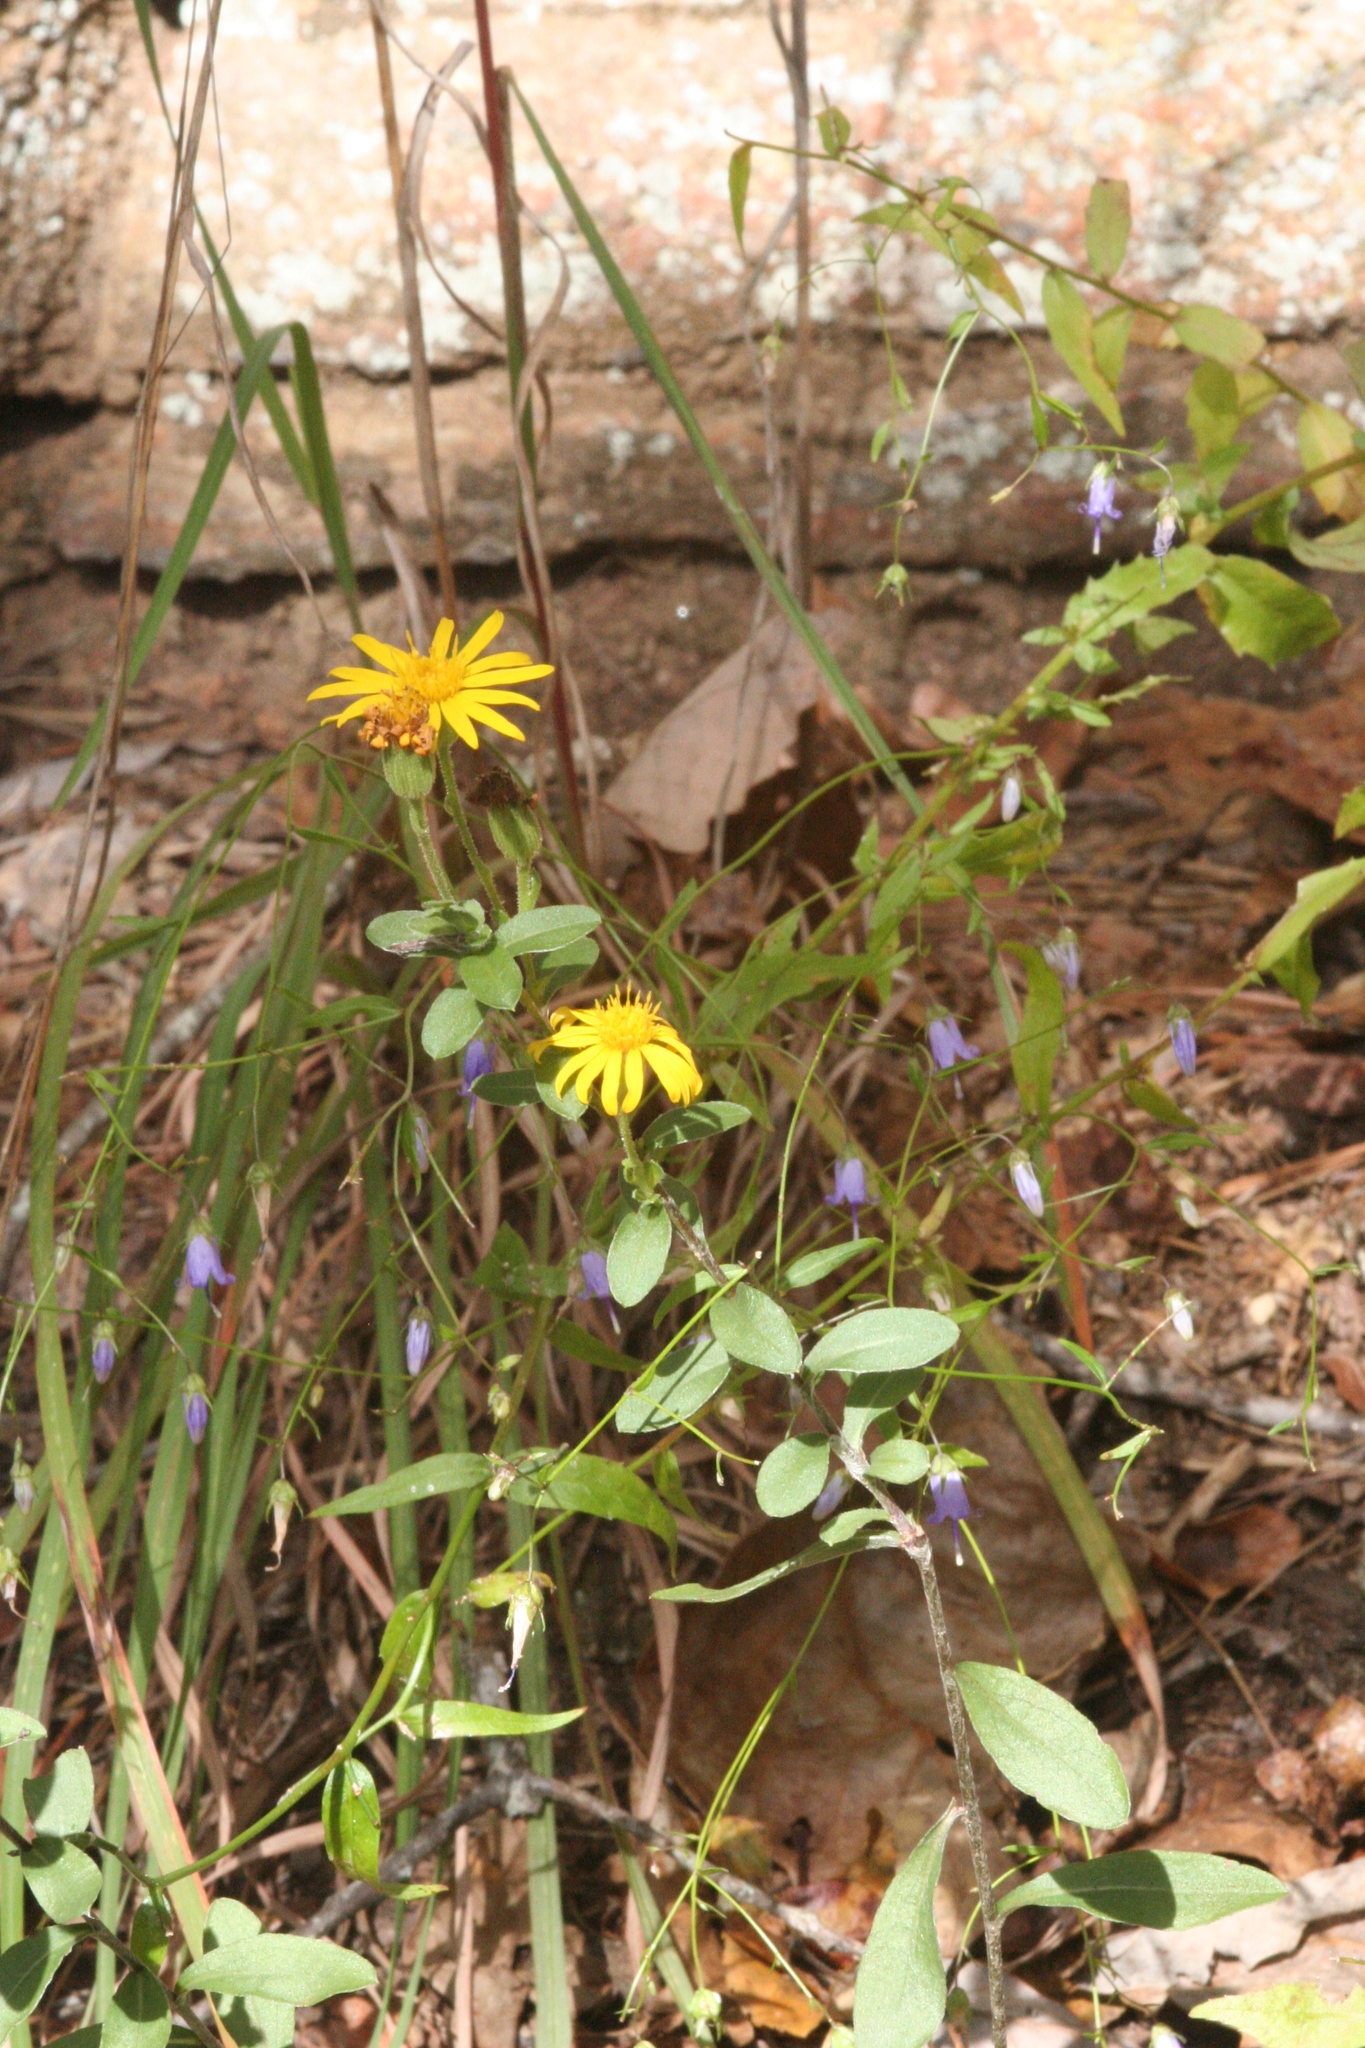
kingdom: Plantae
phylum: Tracheophyta
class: Magnoliopsida
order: Asterales
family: Asteraceae
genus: Chrysopsis
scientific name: Chrysopsis mariana
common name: Maryland golden-aster
